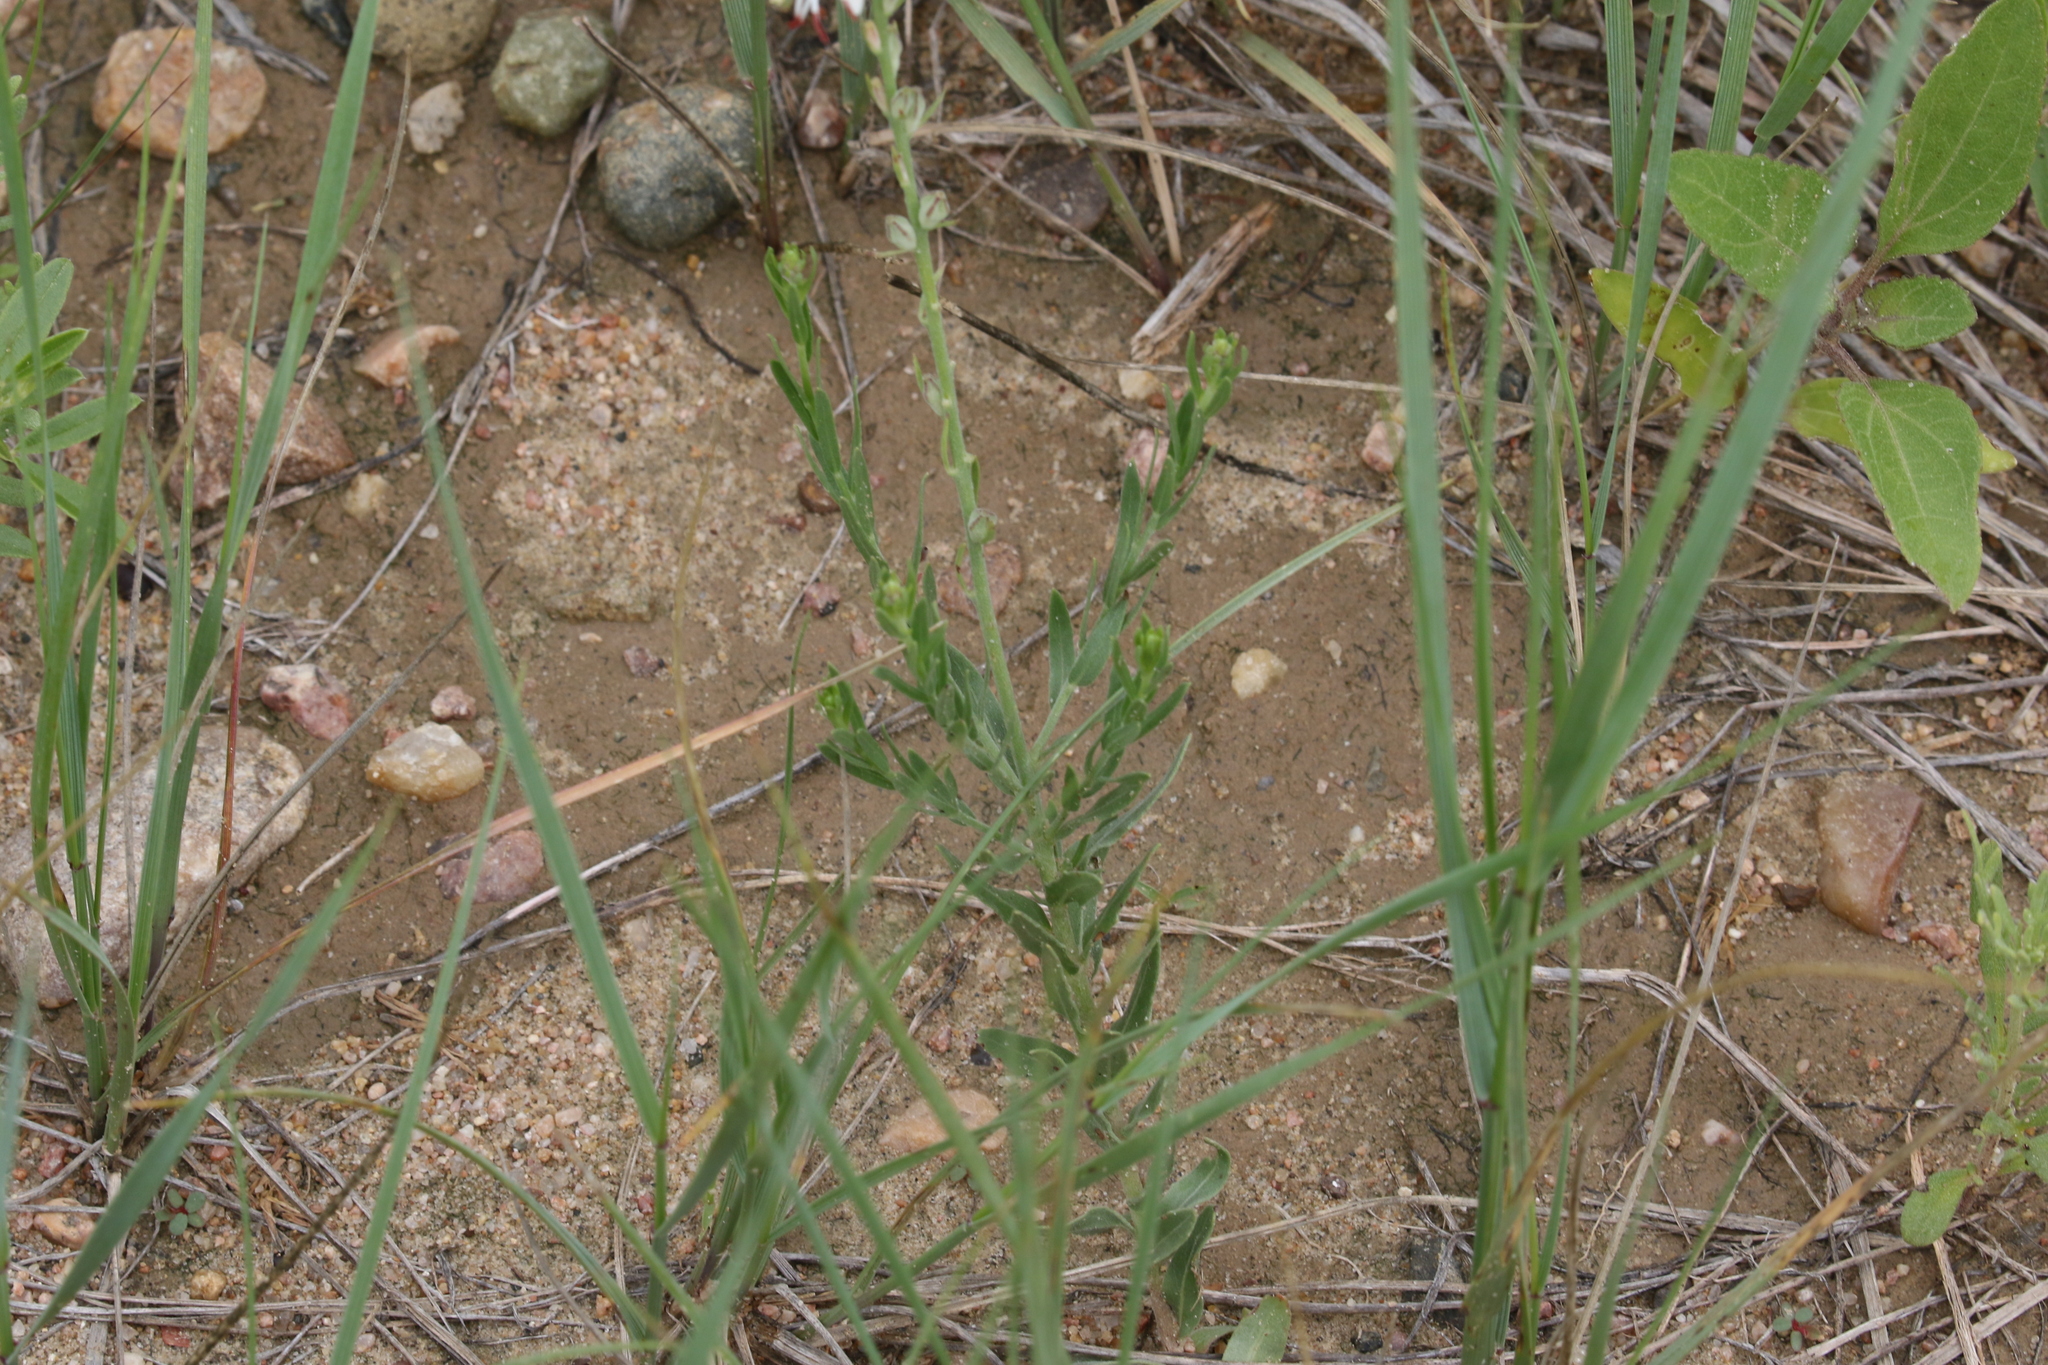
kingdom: Plantae
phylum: Tracheophyta
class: Magnoliopsida
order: Myrtales
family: Onagraceae
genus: Oenothera
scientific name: Oenothera suffrutescens
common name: Scarlet beeblossom
